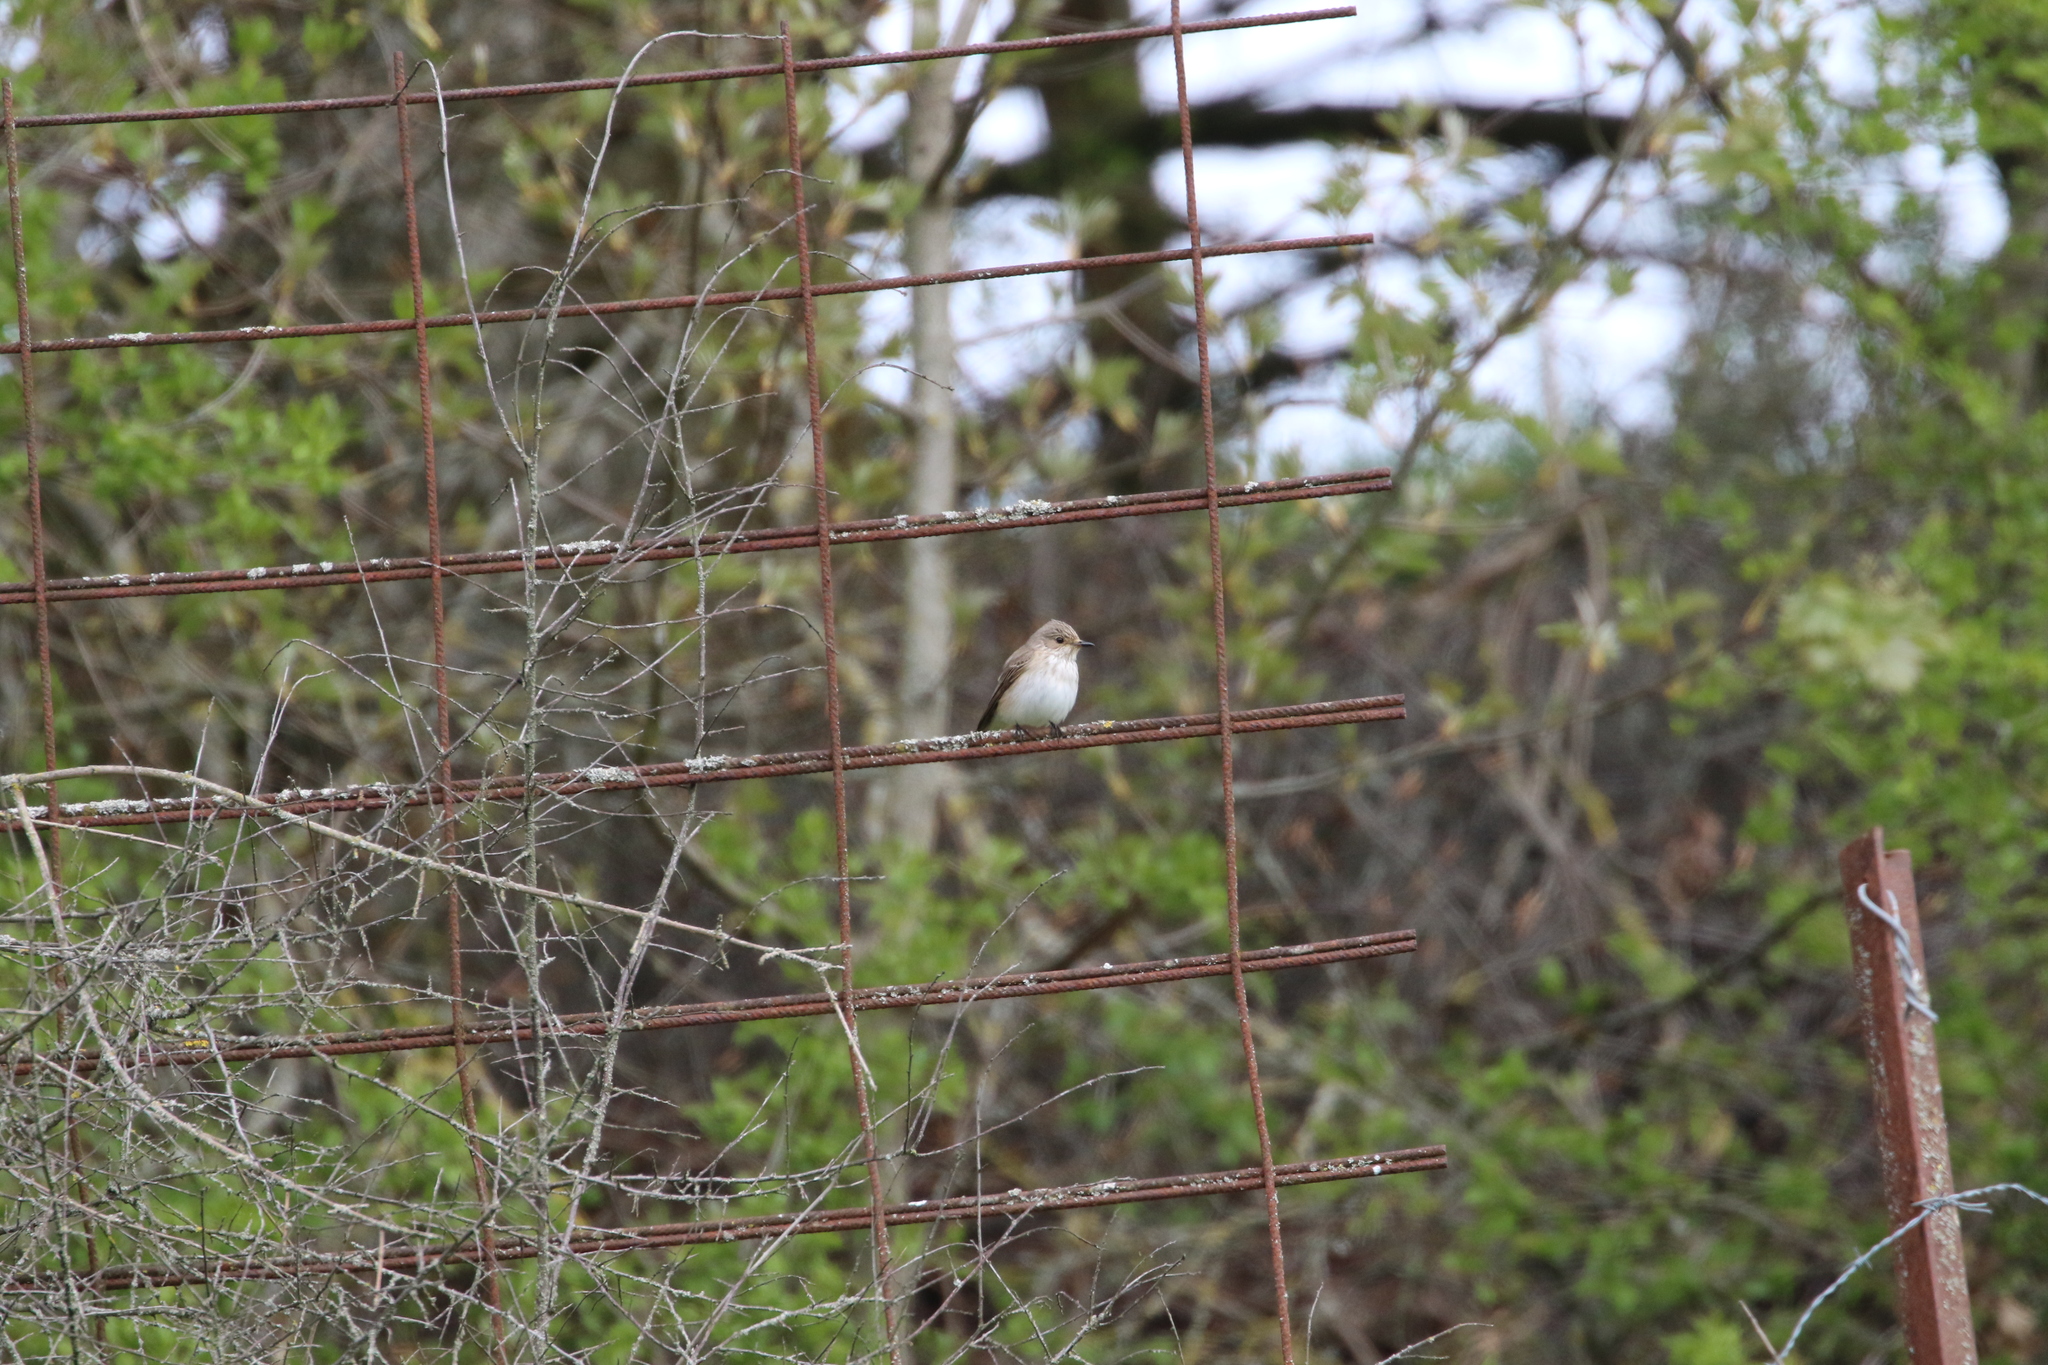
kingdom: Animalia
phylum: Chordata
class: Aves
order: Passeriformes
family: Muscicapidae
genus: Ficedula
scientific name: Ficedula hypoleuca
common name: European pied flycatcher
